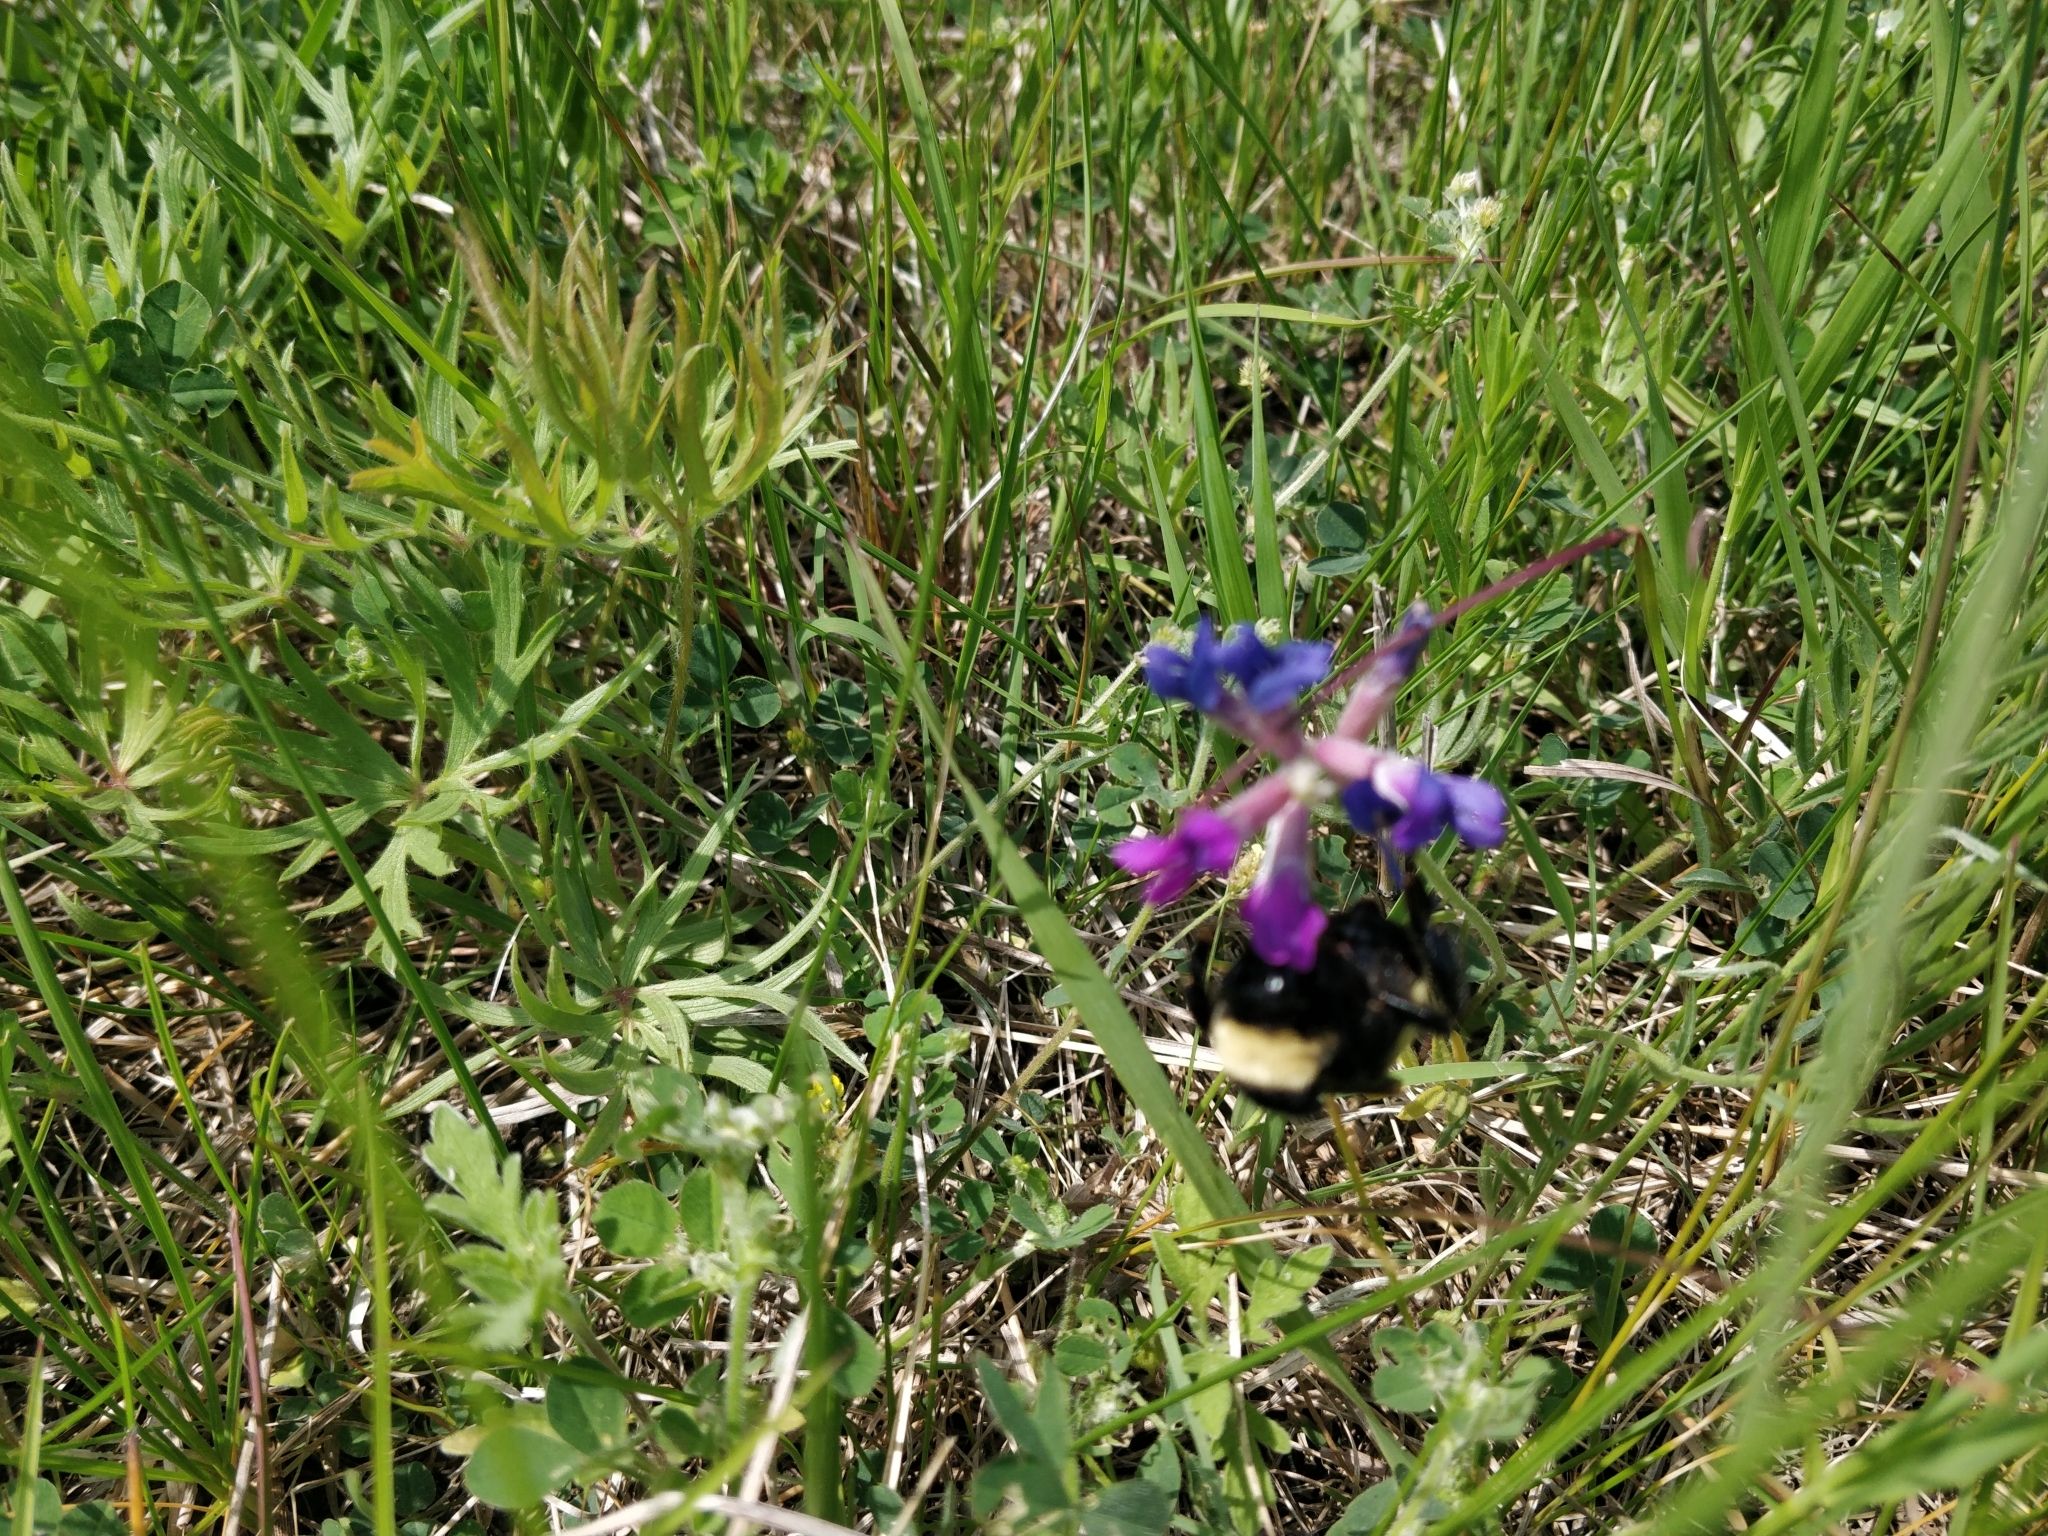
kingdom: Animalia
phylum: Arthropoda
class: Insecta
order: Hymenoptera
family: Apidae
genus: Bombus
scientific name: Bombus pensylvanicus
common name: Bumble bee
